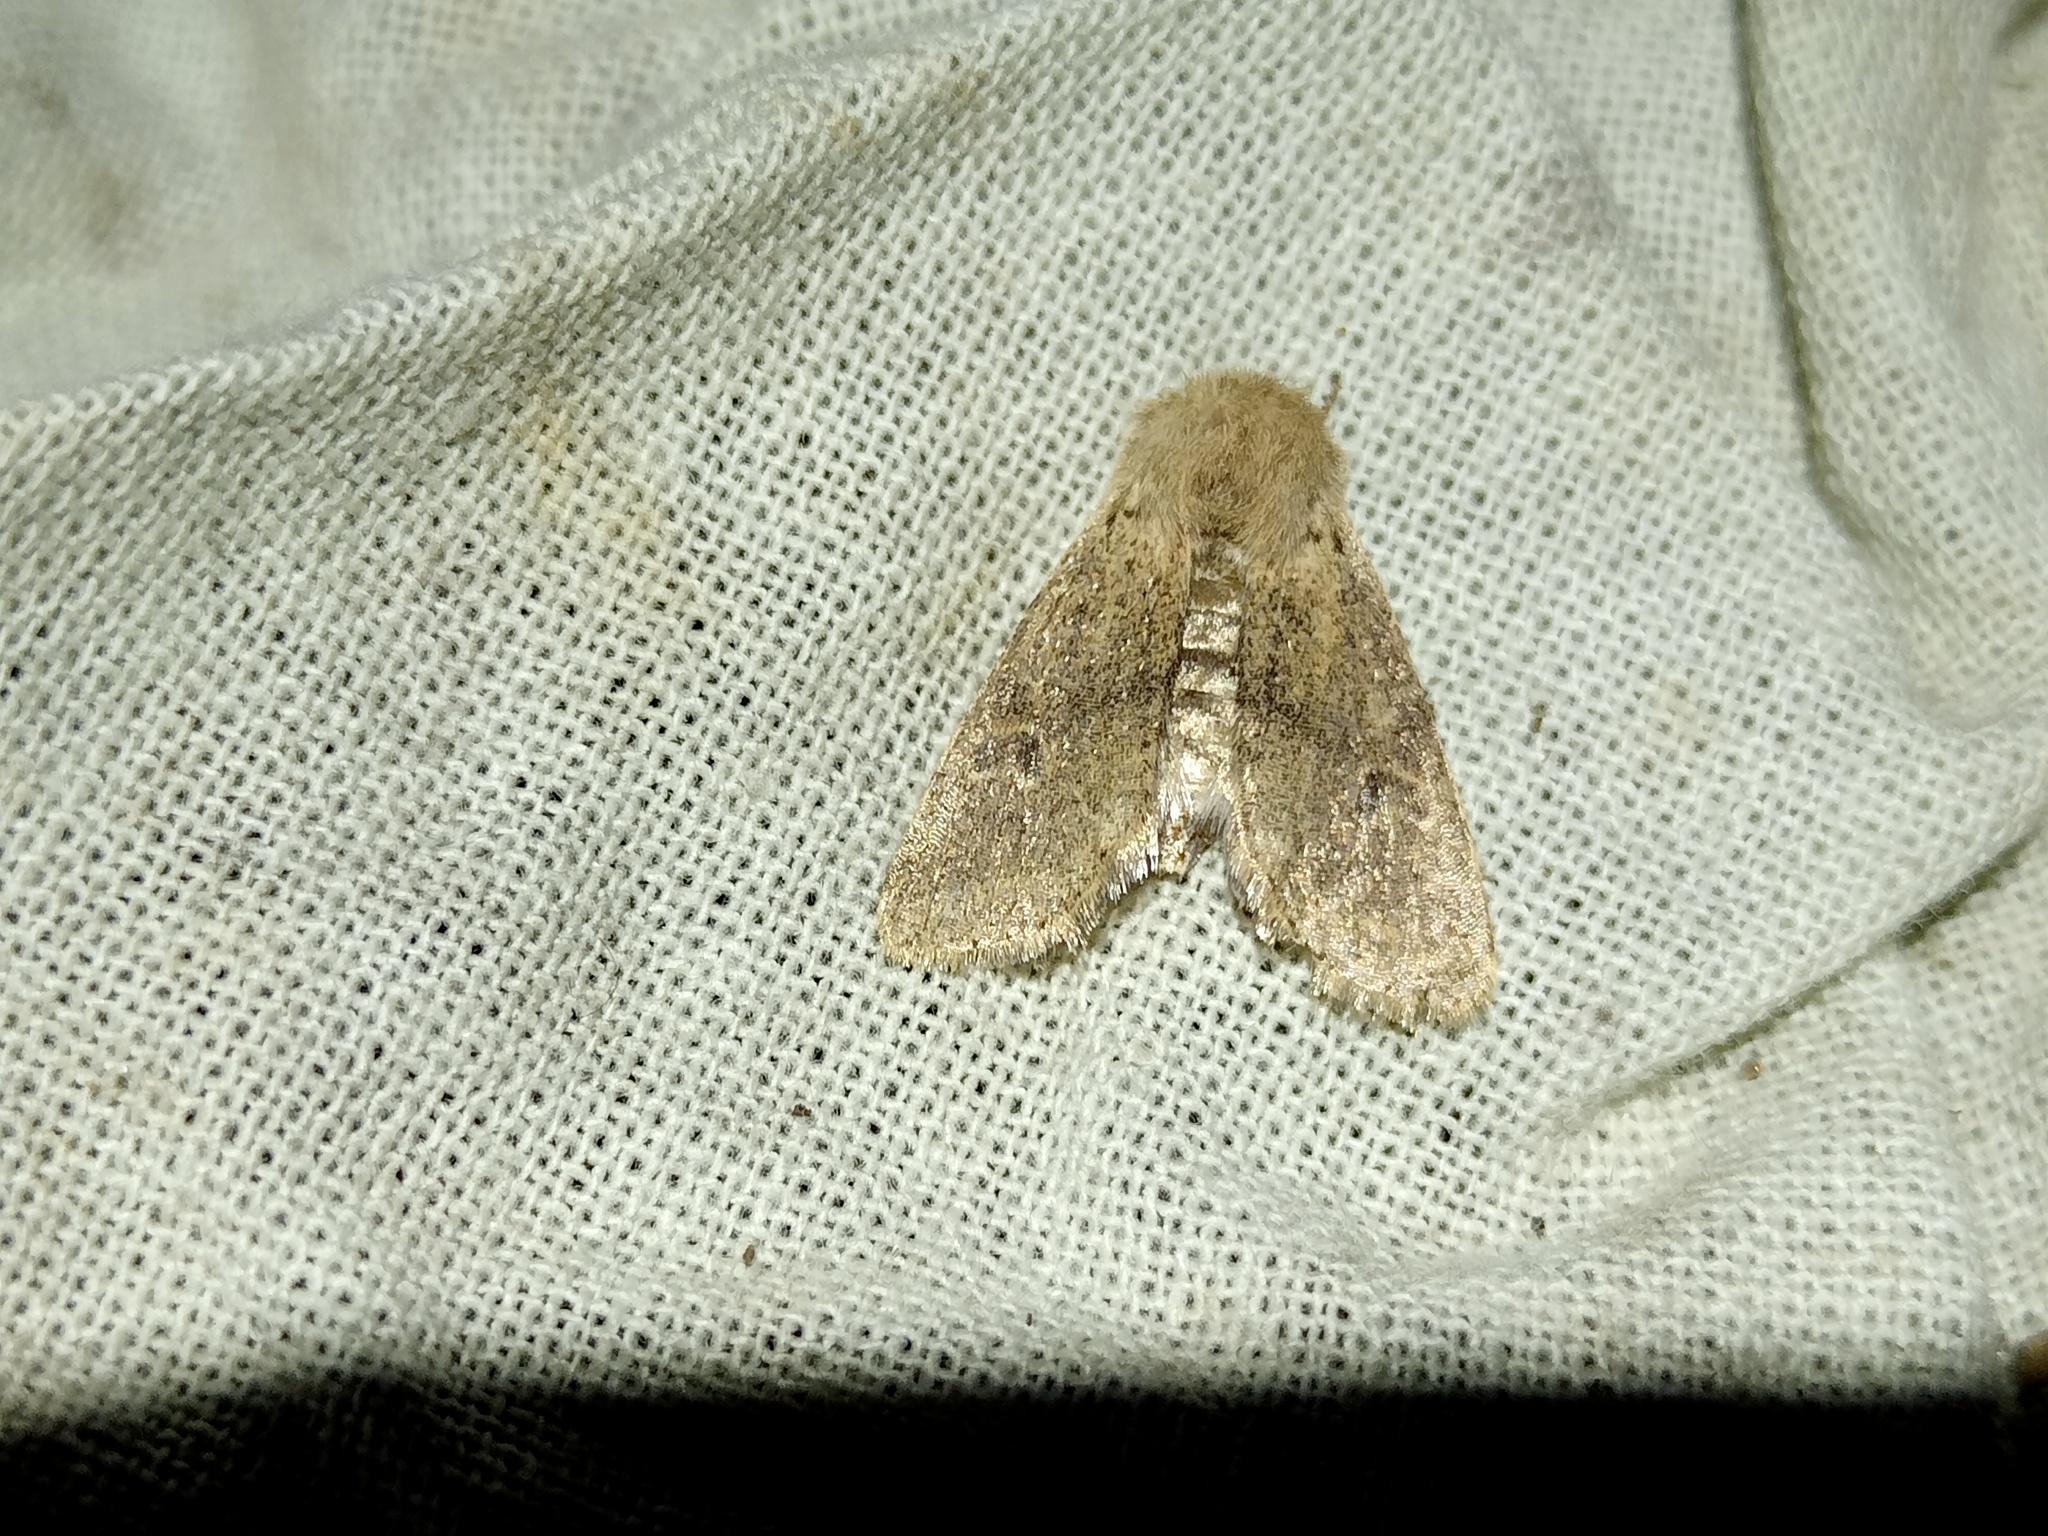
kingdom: Animalia
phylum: Arthropoda
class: Insecta
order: Lepidoptera
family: Noctuidae
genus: Orthosia
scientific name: Orthosia cruda
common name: Small quaker
